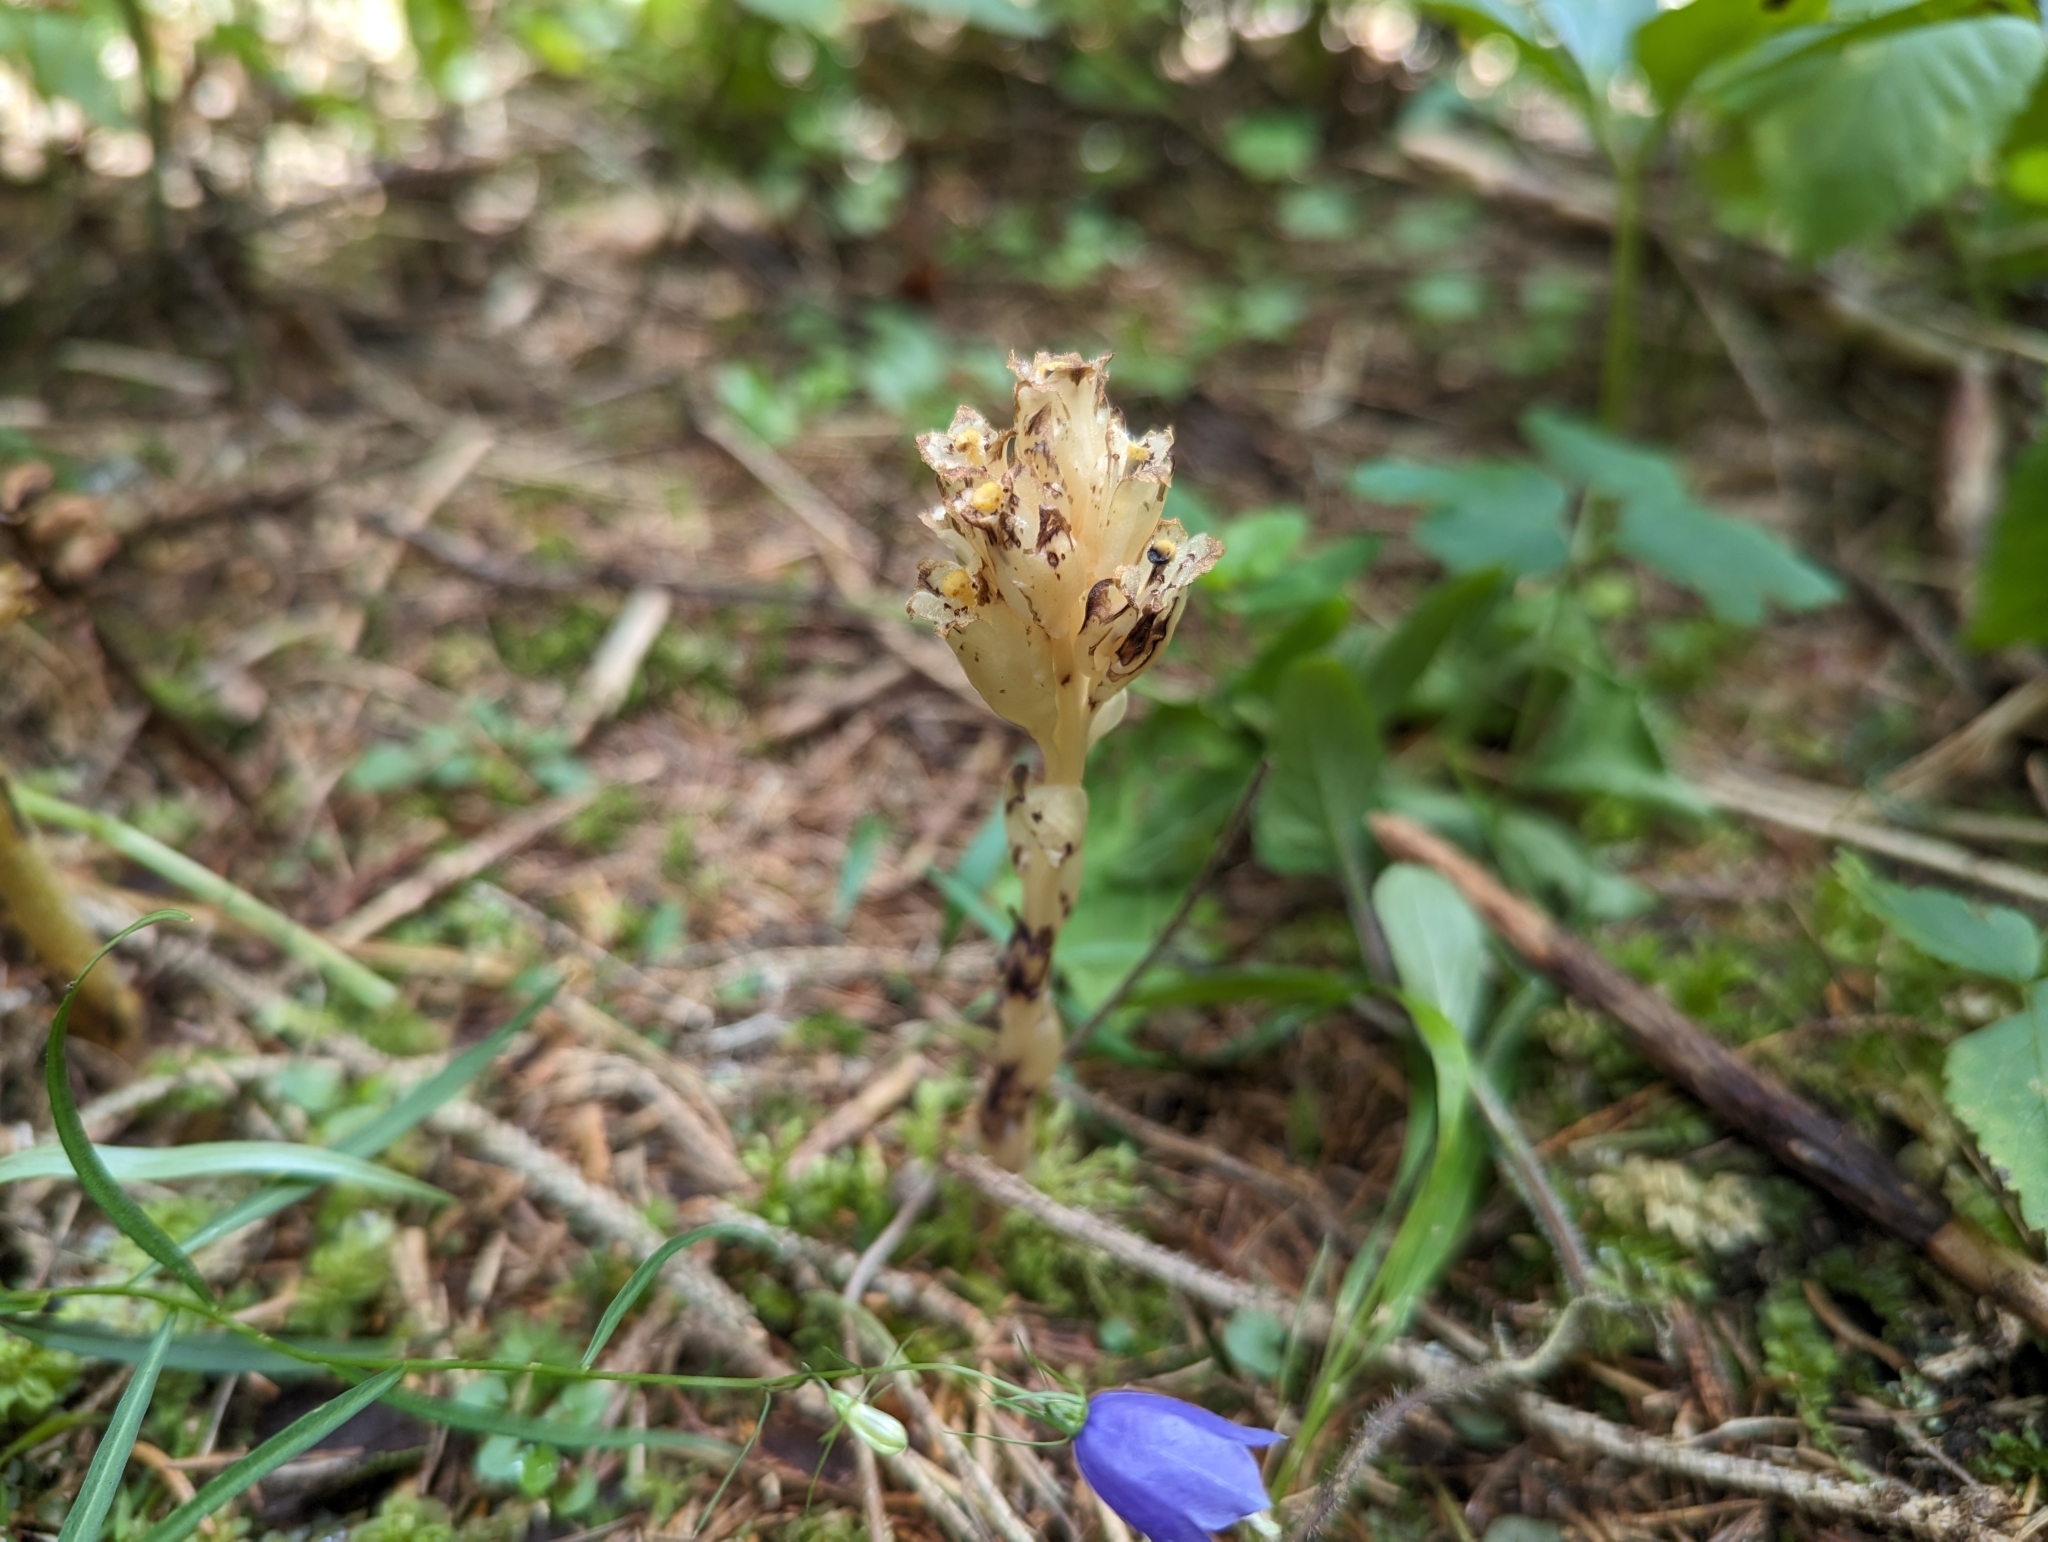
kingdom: Plantae
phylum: Tracheophyta
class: Magnoliopsida
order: Ericales
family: Ericaceae
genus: Hypopitys
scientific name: Hypopitys monotropa
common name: Yellow bird's-nest
